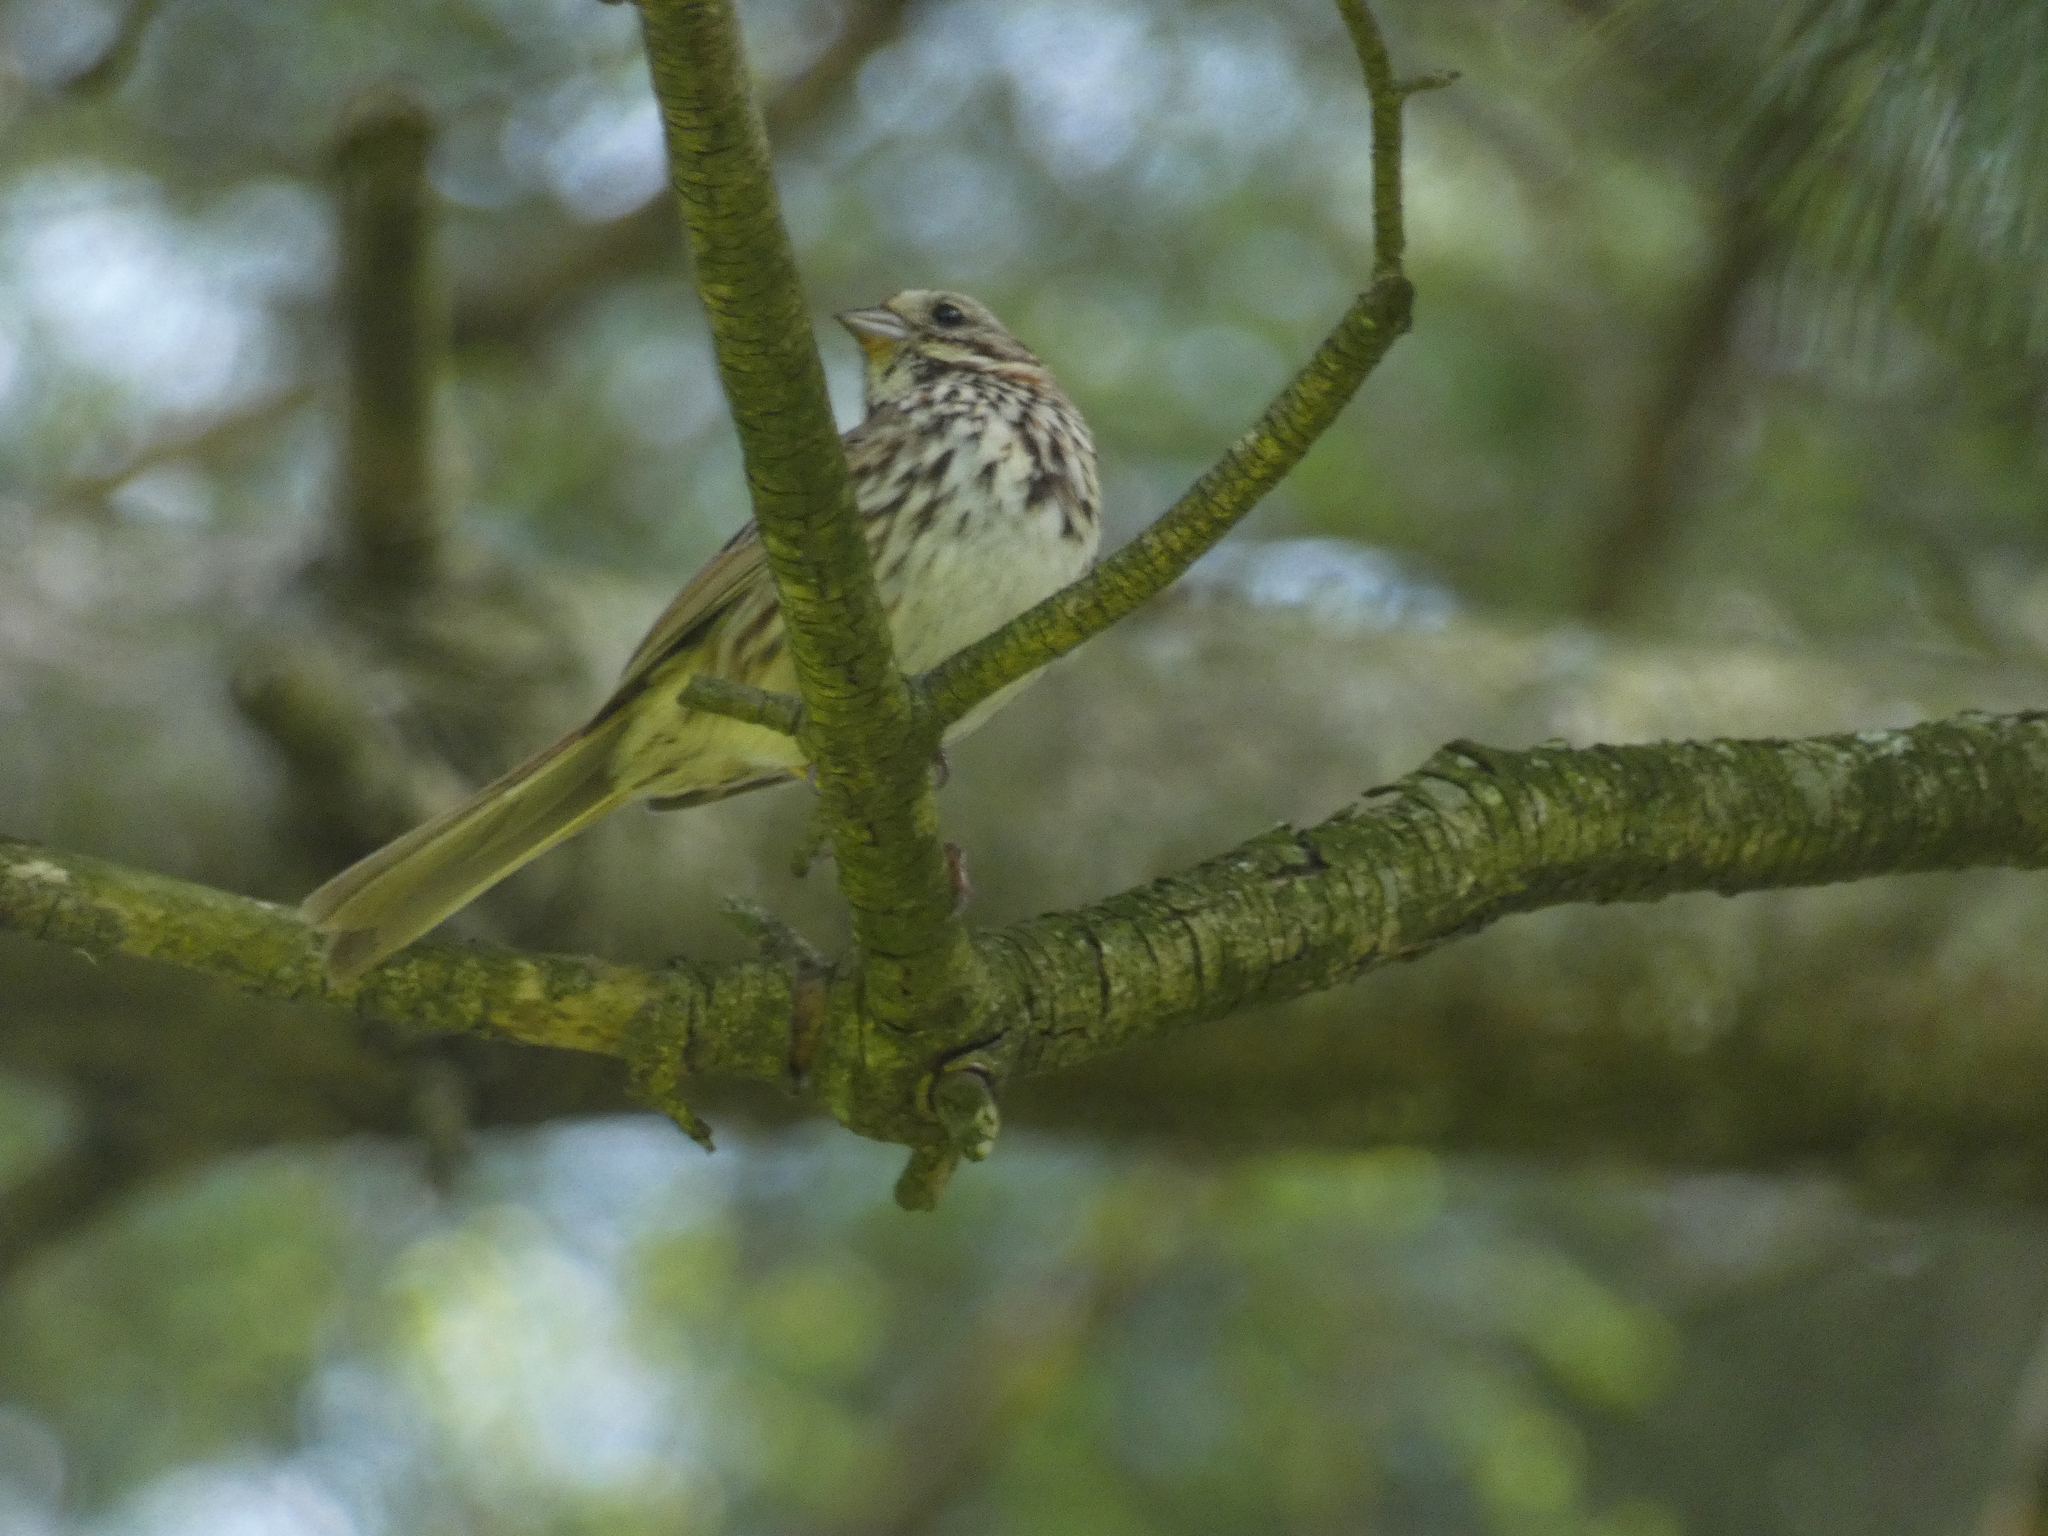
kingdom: Animalia
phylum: Chordata
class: Aves
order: Passeriformes
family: Passerellidae
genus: Melospiza
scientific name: Melospiza melodia
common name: Song sparrow
